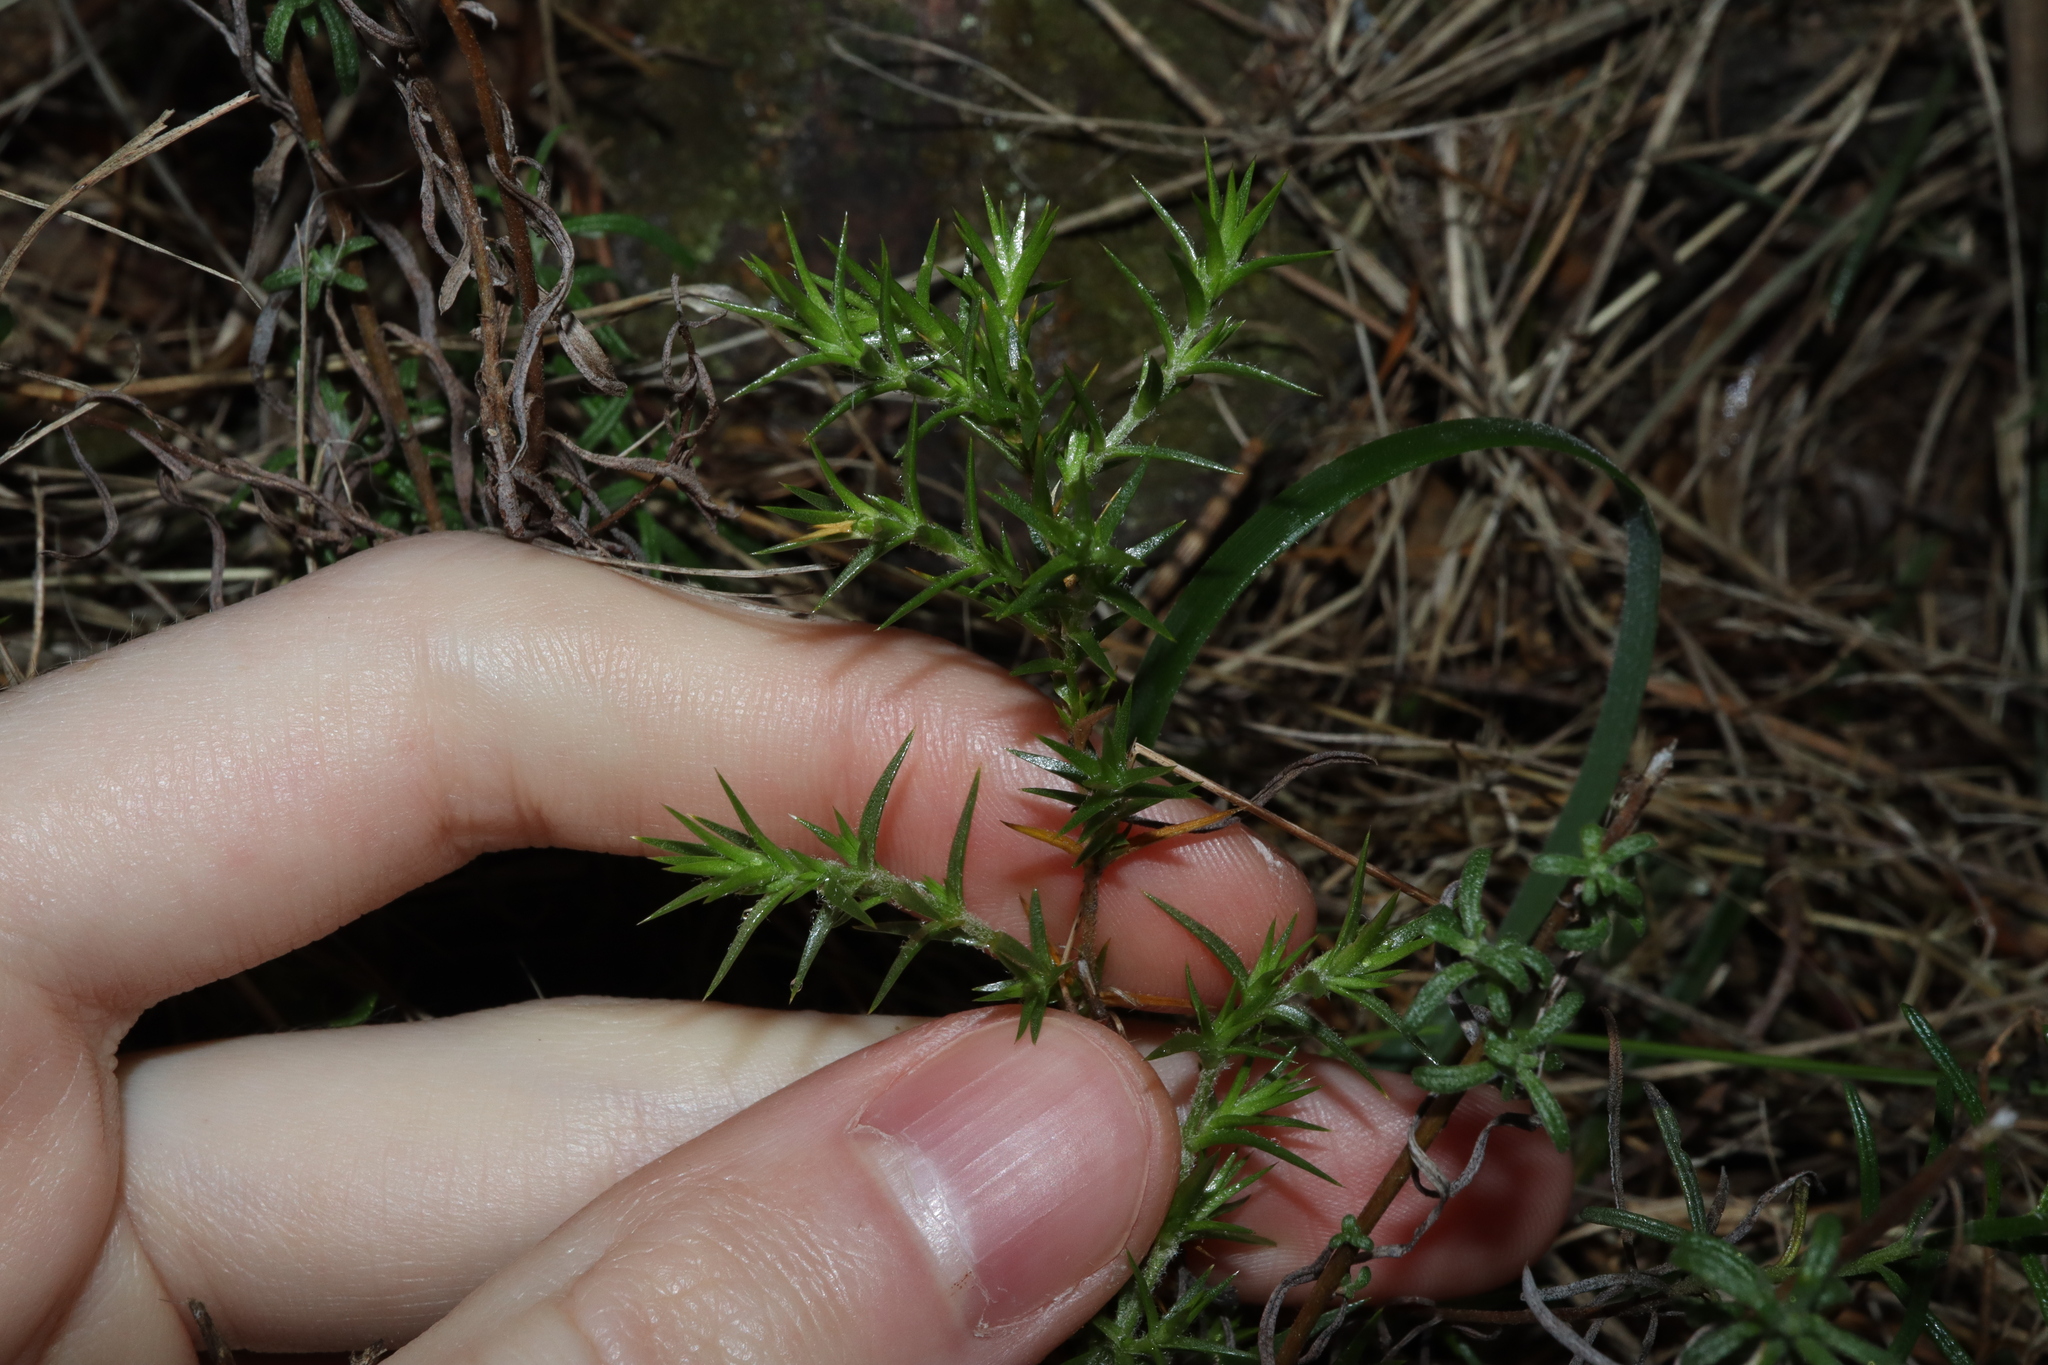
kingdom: Plantae
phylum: Tracheophyta
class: Magnoliopsida
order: Caryophyllales
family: Caryophyllaceae
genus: Stellaria
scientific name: Stellaria pungens
